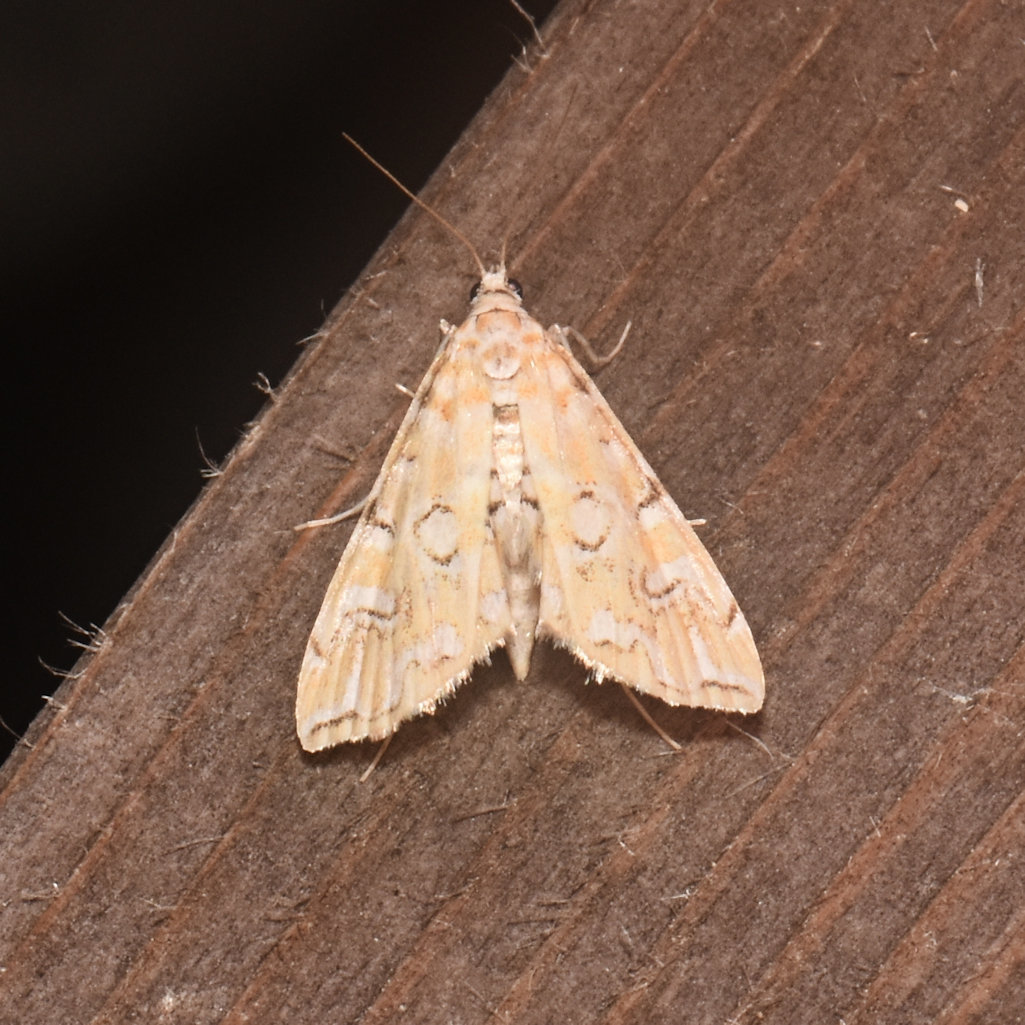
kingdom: Animalia
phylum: Arthropoda
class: Insecta
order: Lepidoptera
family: Crambidae
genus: Elophila
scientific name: Elophila icciusalis
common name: Pondside pyralid moth
